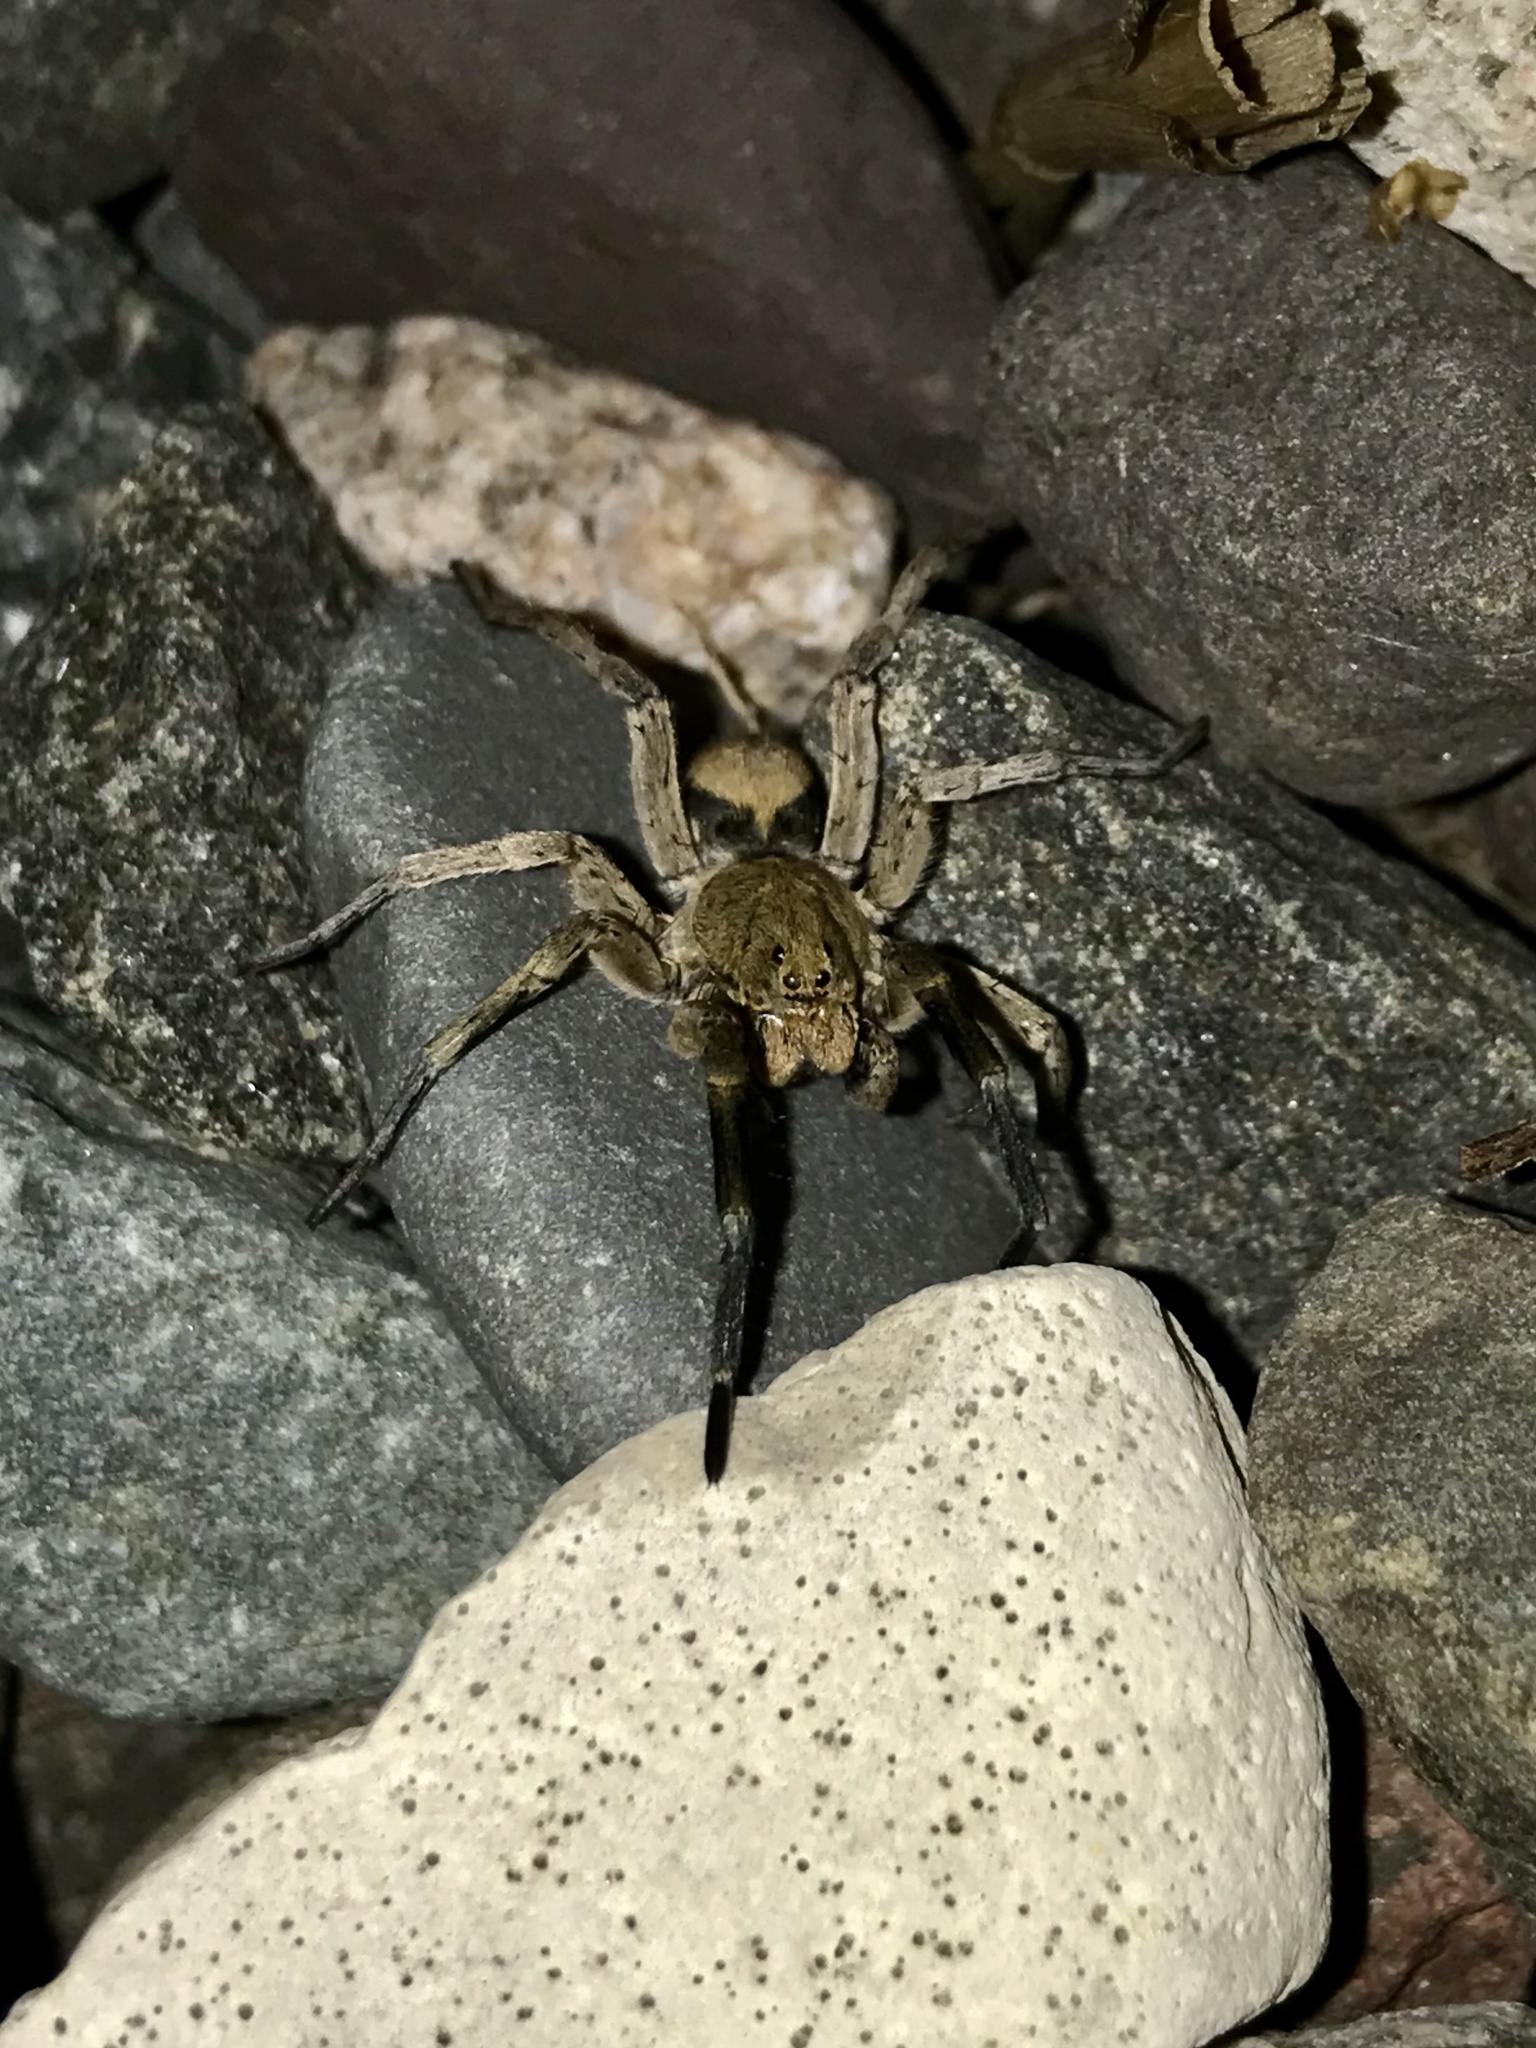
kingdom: Animalia
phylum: Arthropoda
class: Arachnida
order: Araneae
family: Lycosidae
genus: Geolycosa
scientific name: Geolycosa wrighti
